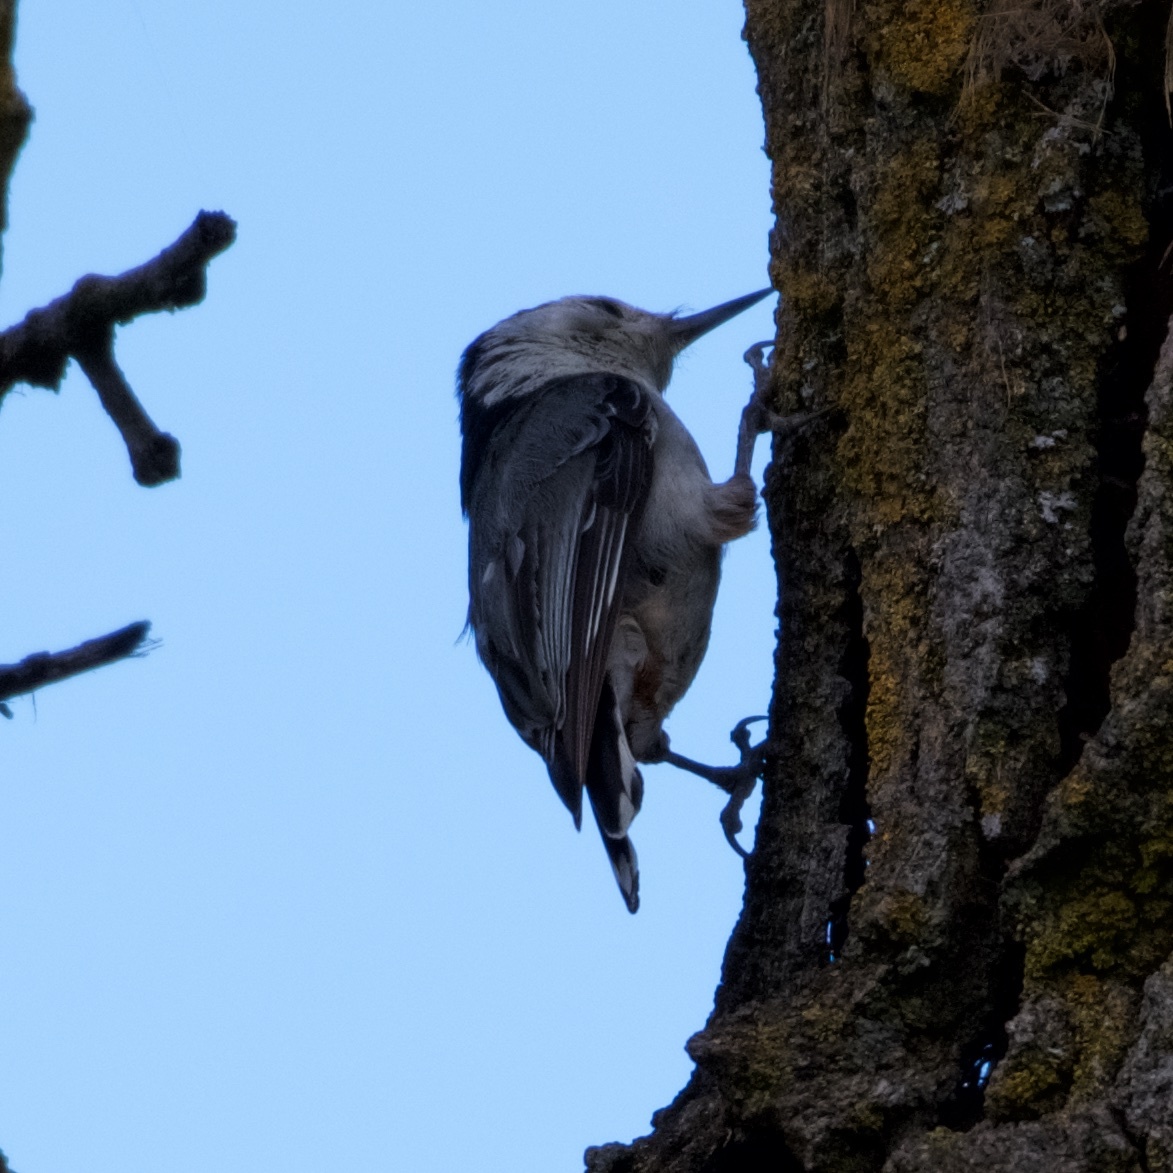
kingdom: Animalia
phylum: Chordata
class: Aves
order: Passeriformes
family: Sittidae
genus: Sitta
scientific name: Sitta carolinensis
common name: White-breasted nuthatch
